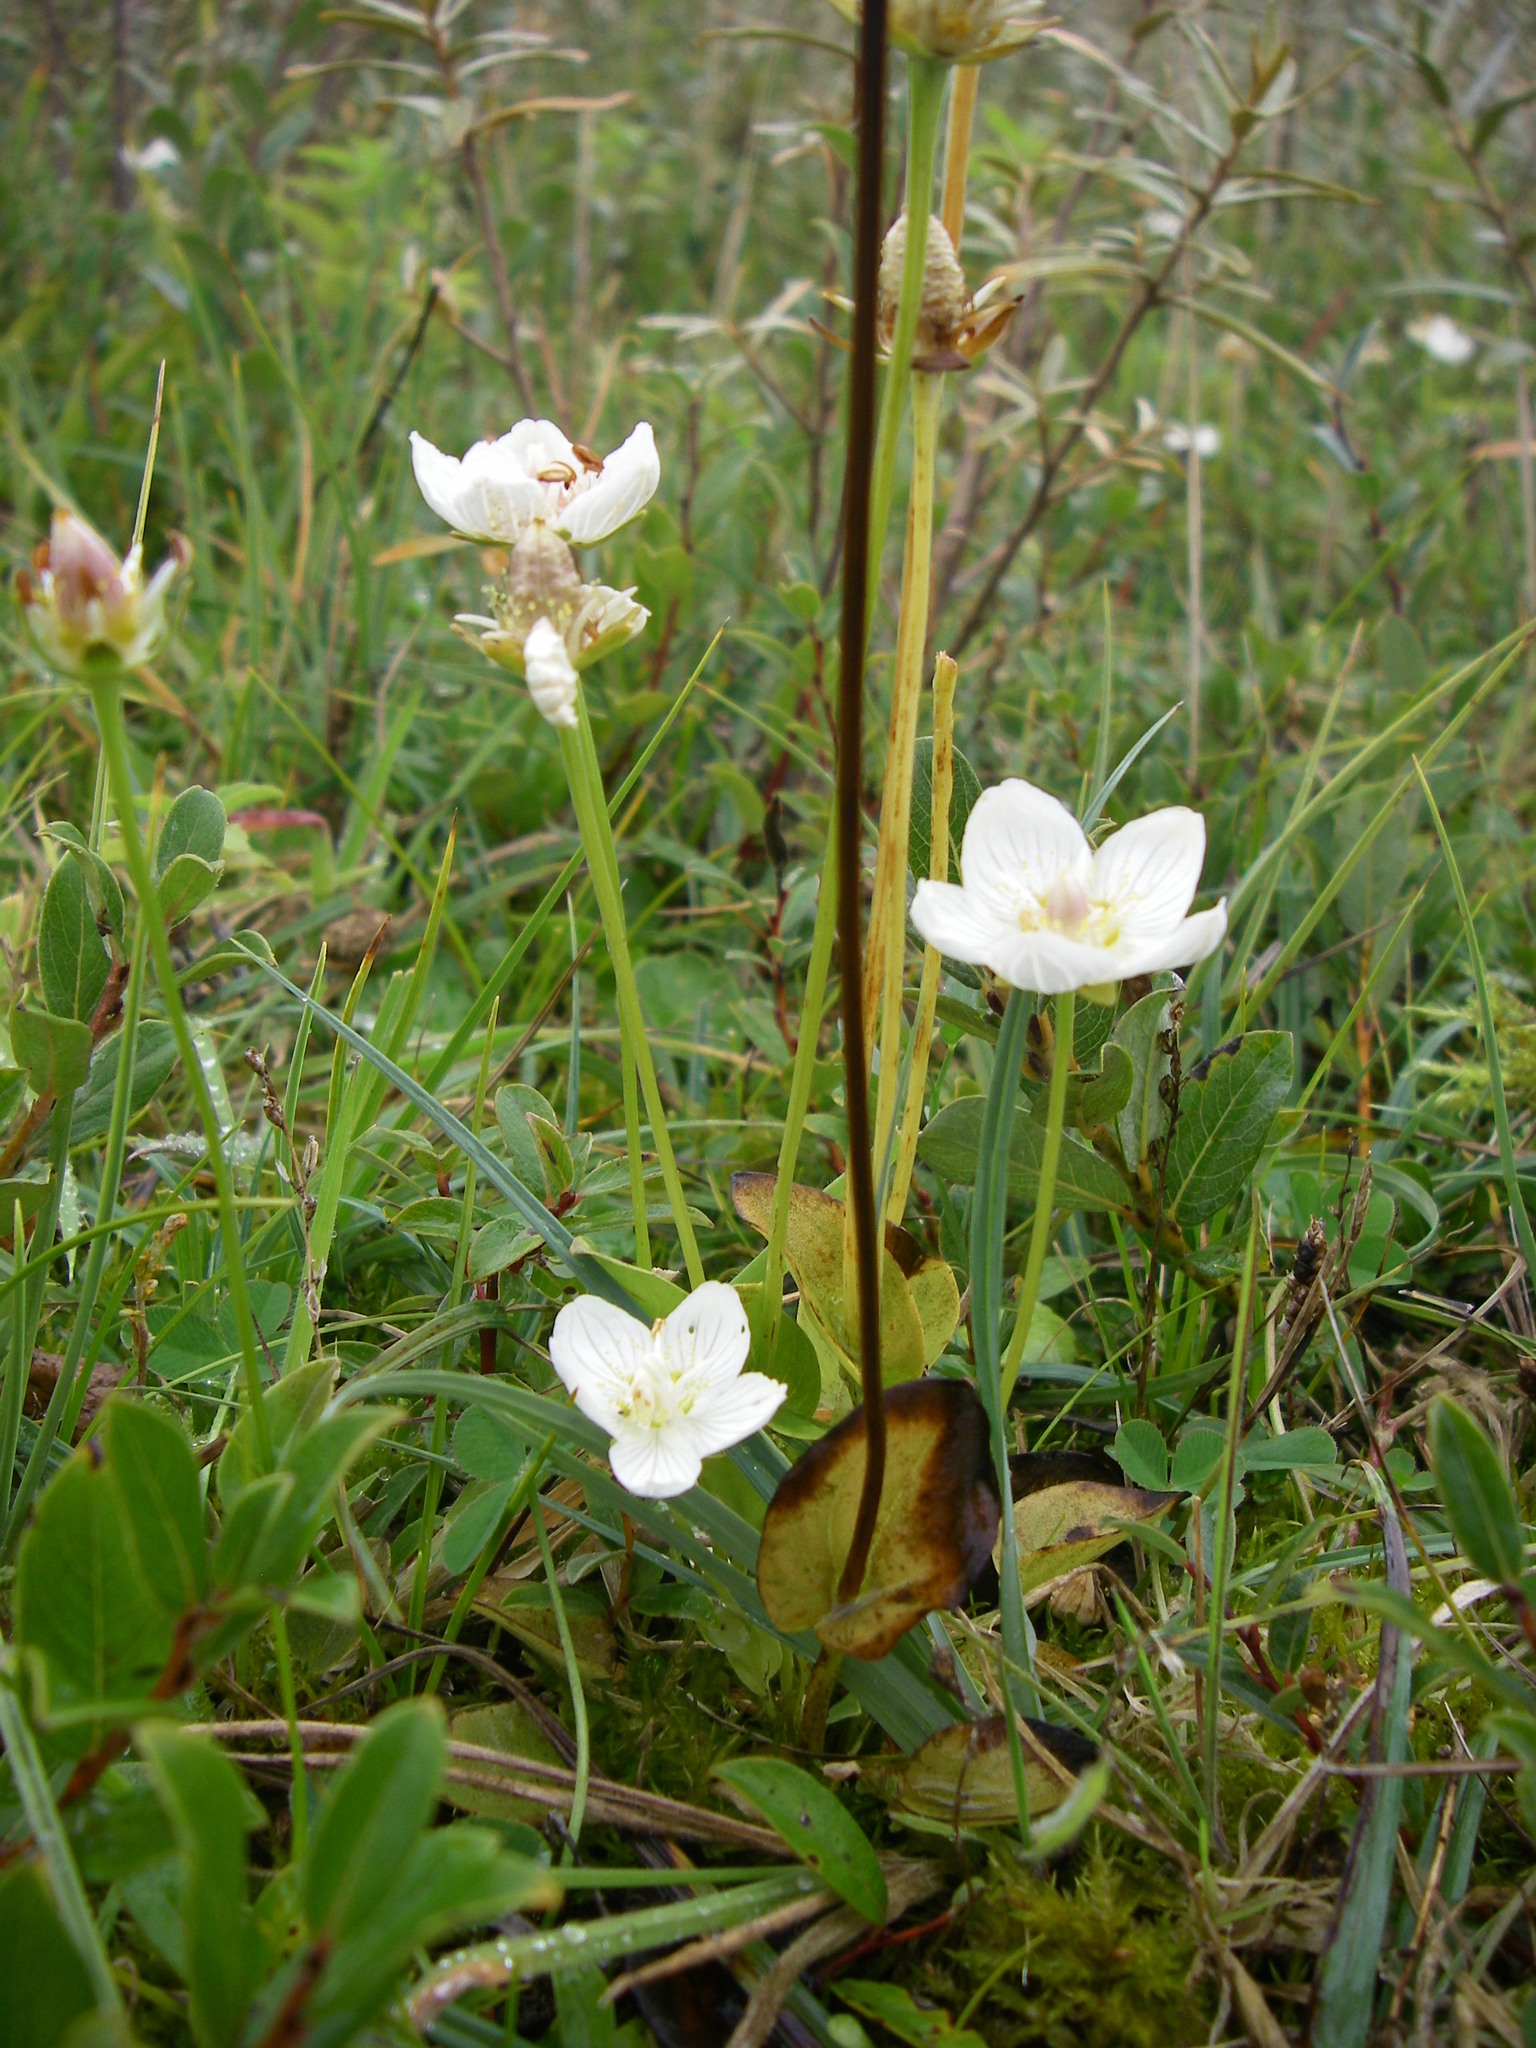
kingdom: Plantae
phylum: Tracheophyta
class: Magnoliopsida
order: Celastrales
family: Parnassiaceae
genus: Parnassia
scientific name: Parnassia palustris
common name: Grass-of-parnassus
